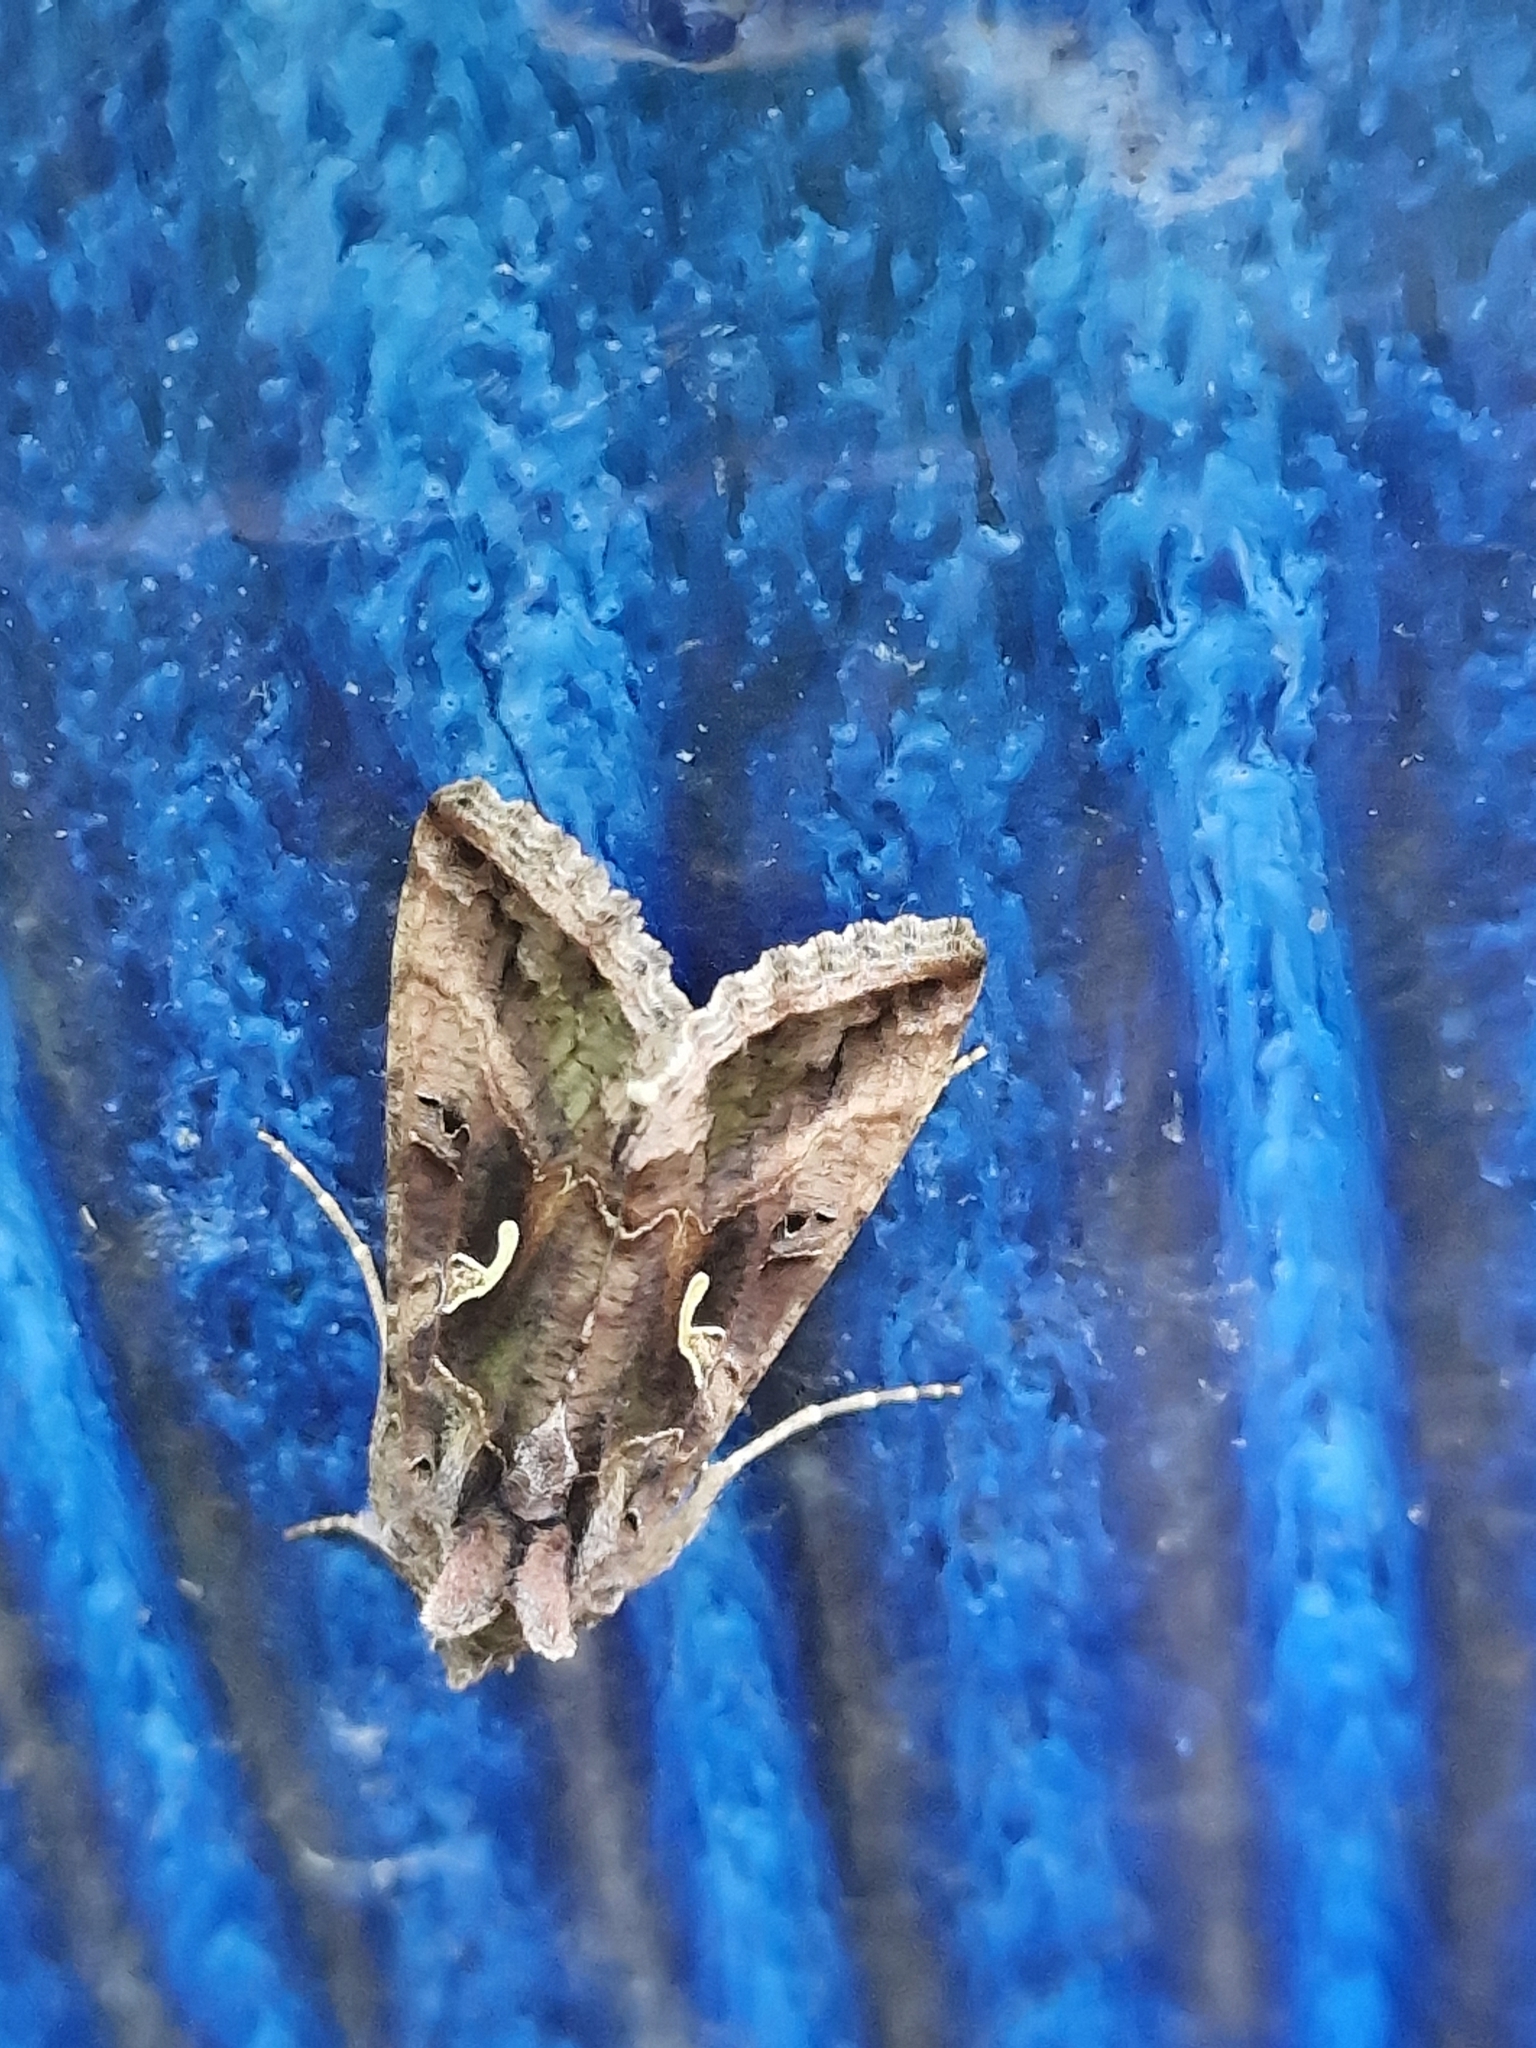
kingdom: Animalia
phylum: Arthropoda
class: Insecta
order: Lepidoptera
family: Noctuidae
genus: Autographa
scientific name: Autographa gamma
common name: Silver y
